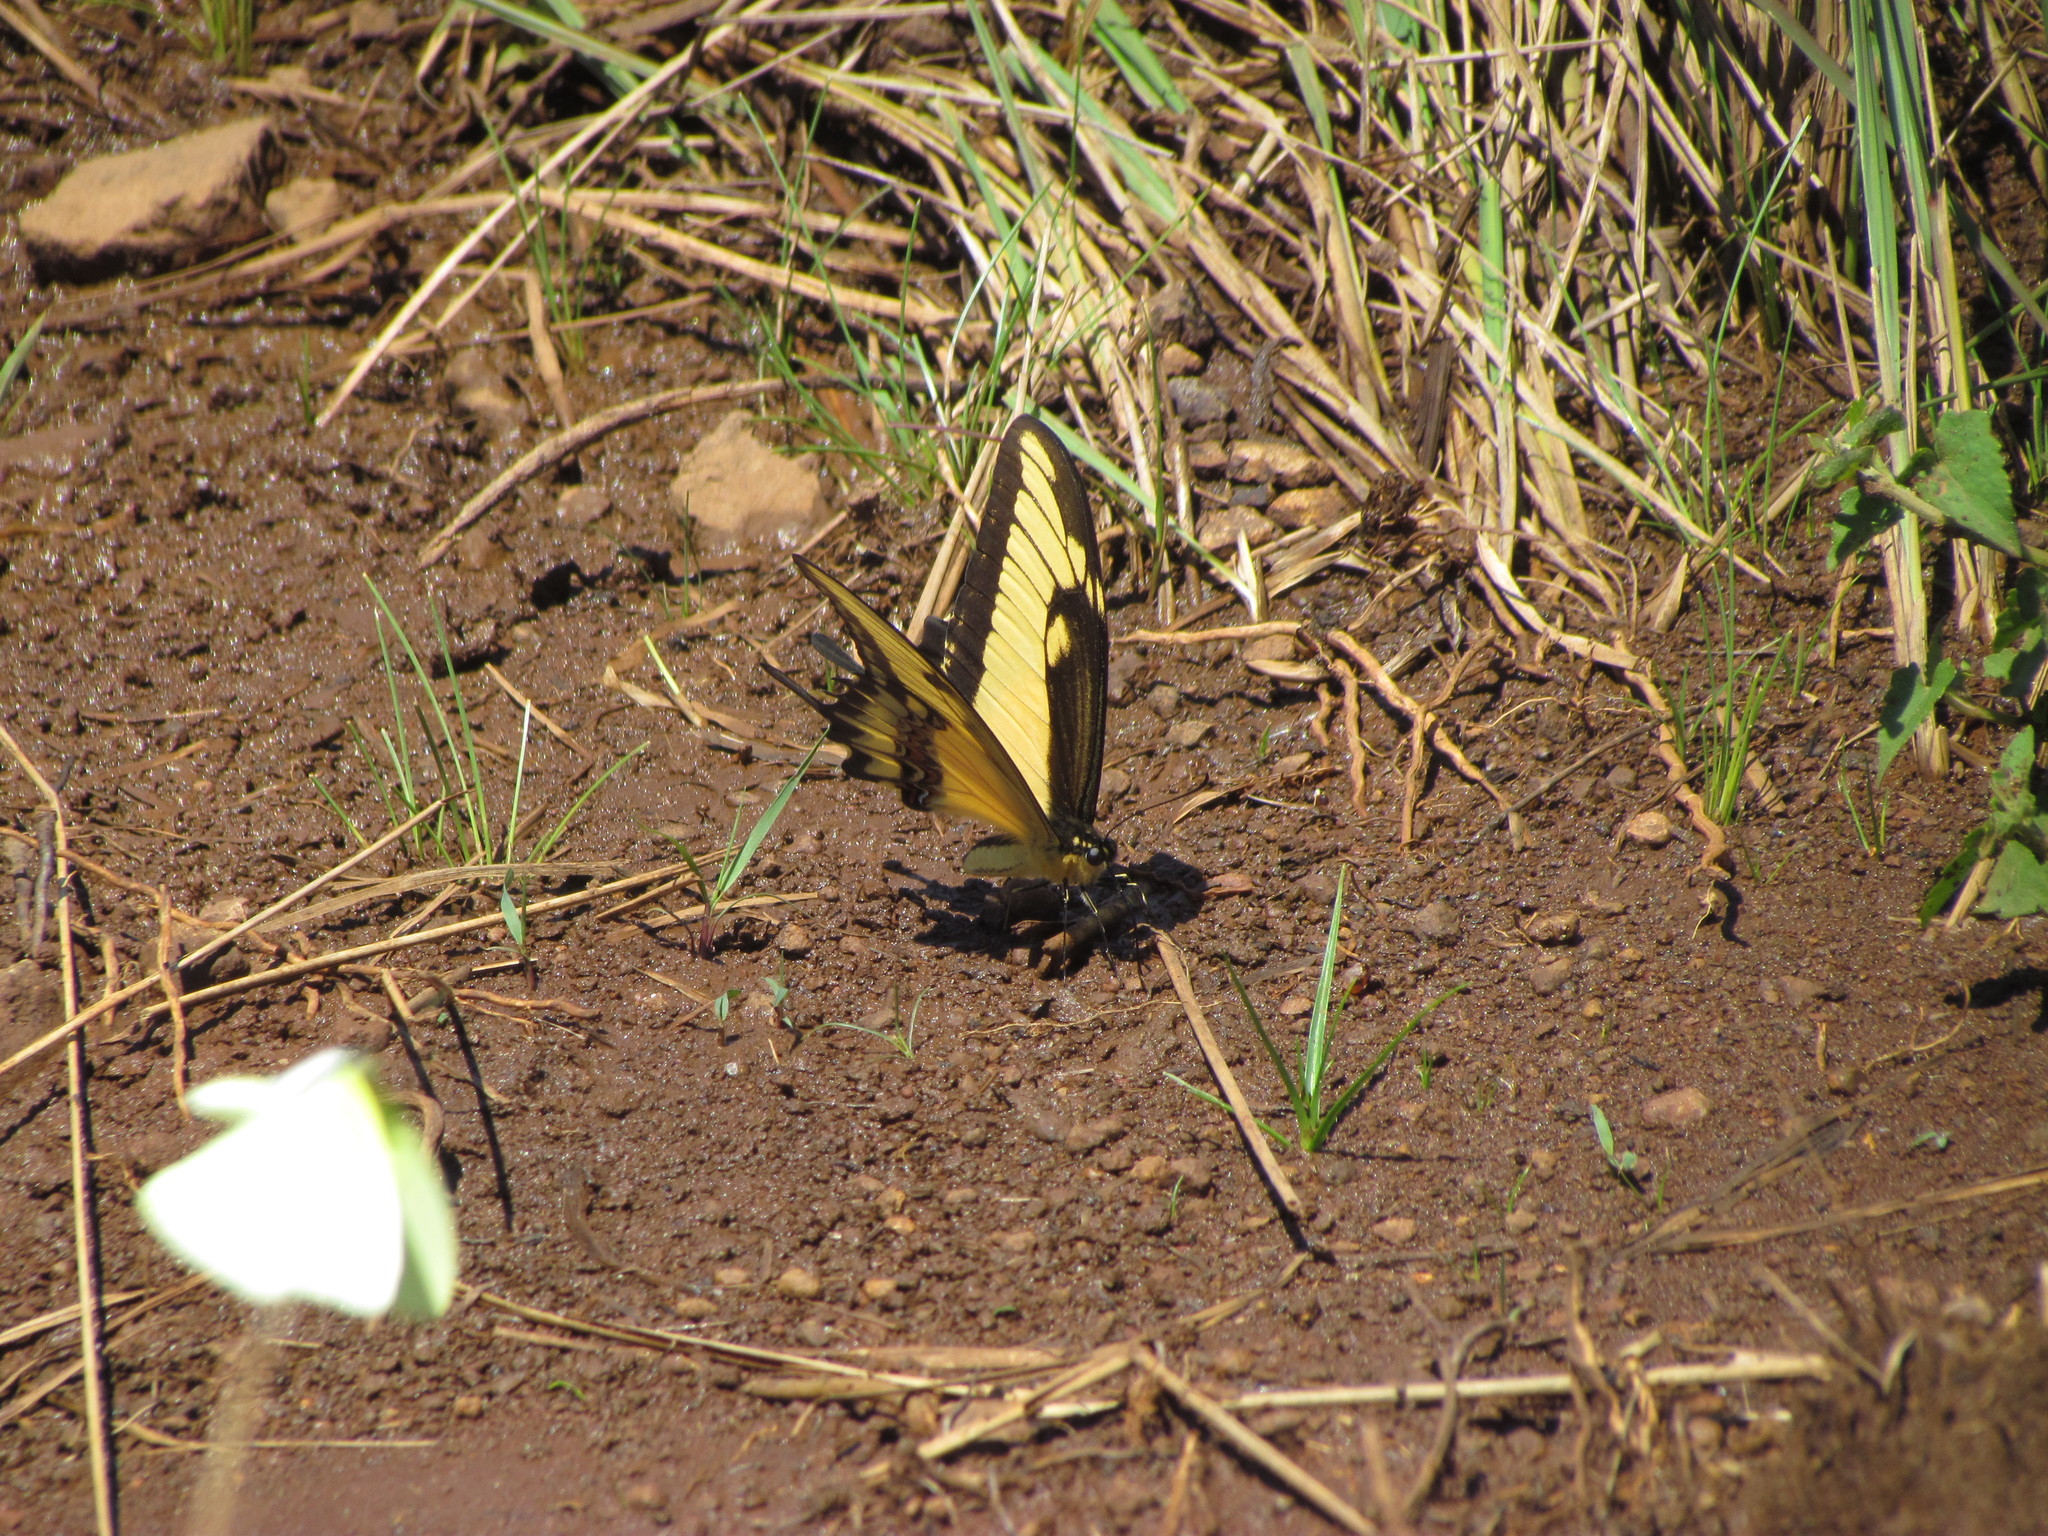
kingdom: Animalia
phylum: Arthropoda
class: Insecta
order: Lepidoptera
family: Papilionidae
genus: Papilio
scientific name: Papilio astyalus
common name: Astyalus swallowtail
